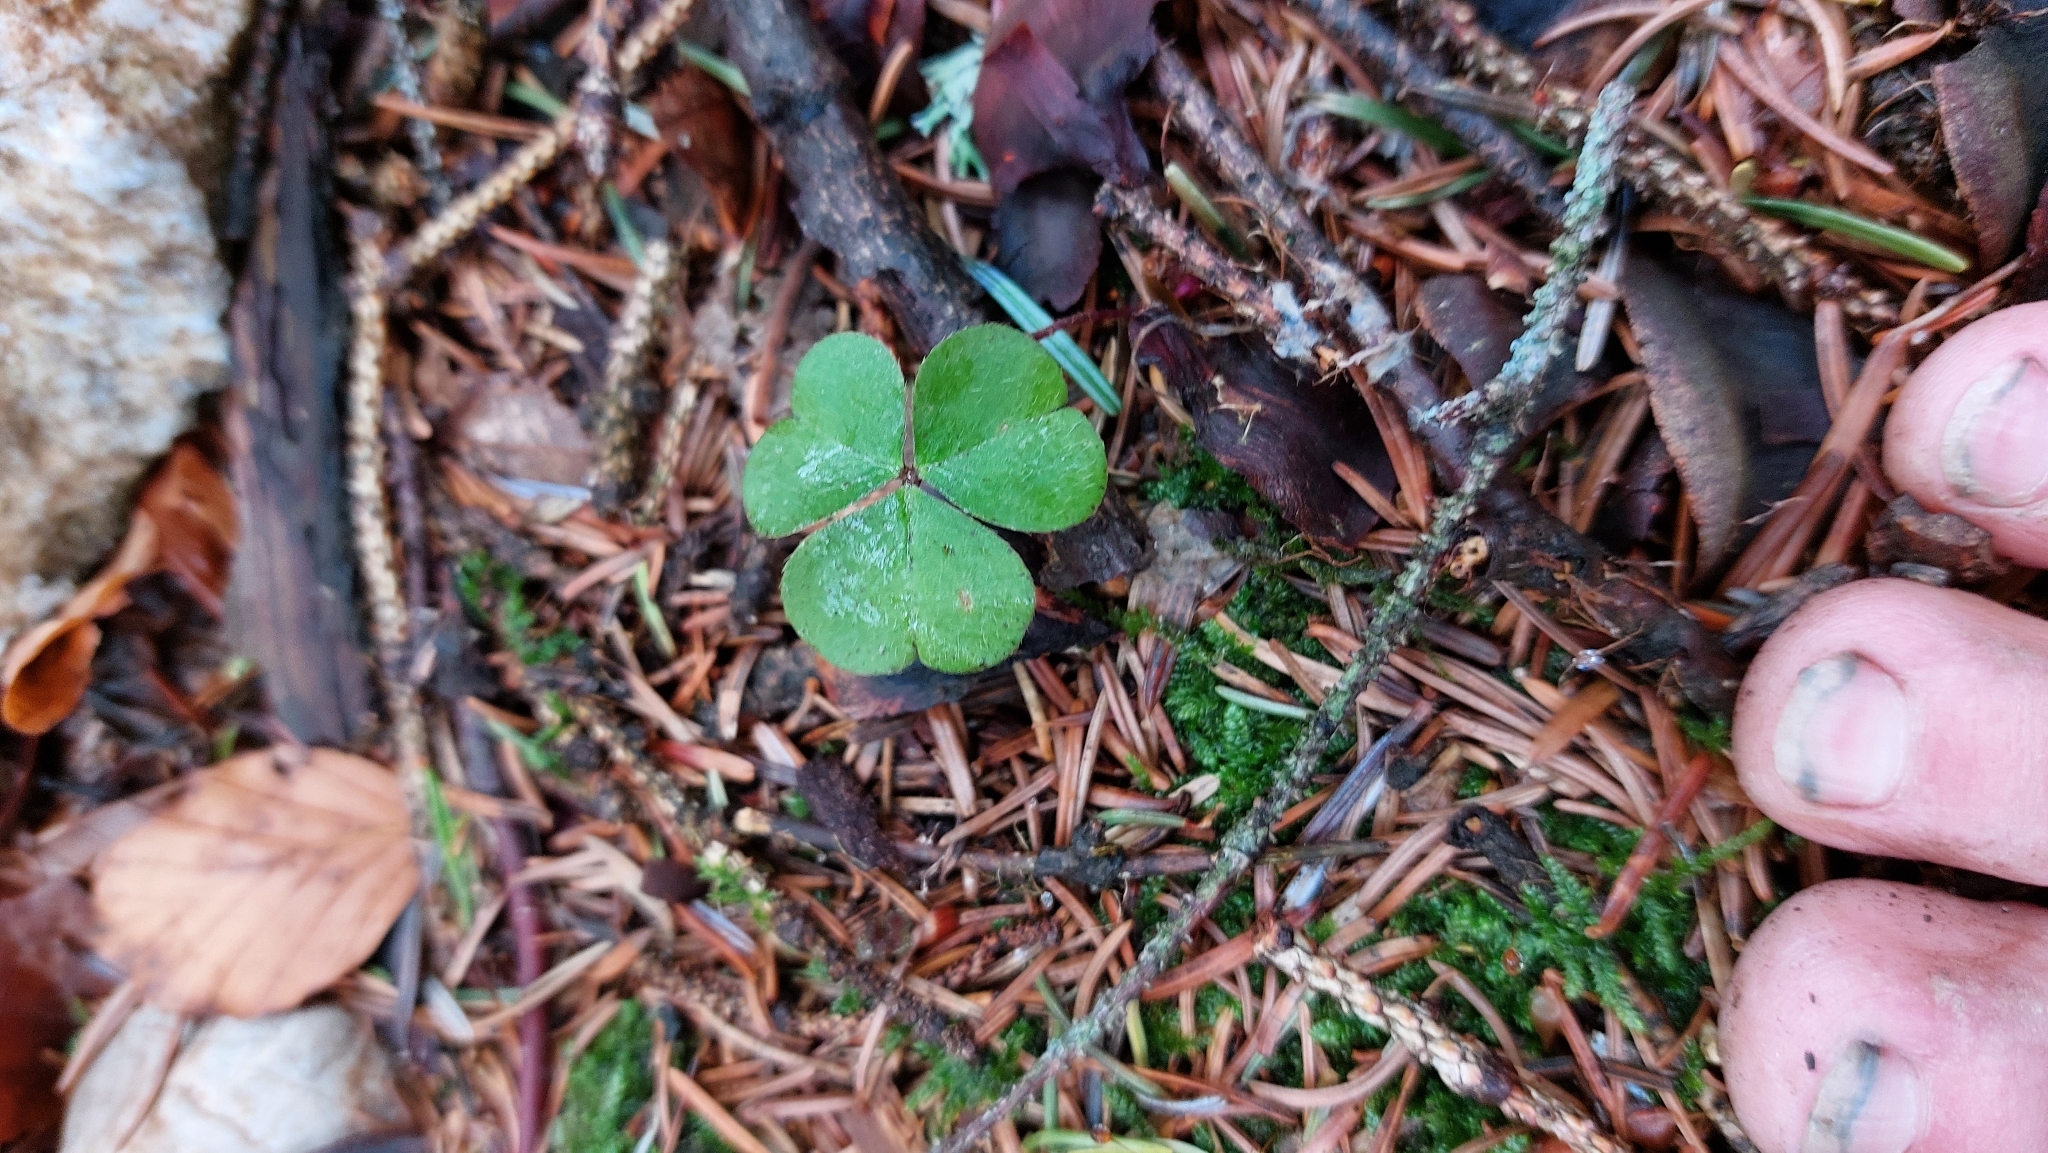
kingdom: Plantae
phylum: Tracheophyta
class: Magnoliopsida
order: Oxalidales
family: Oxalidaceae
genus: Oxalis
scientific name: Oxalis acetosella
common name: Wood-sorrel
